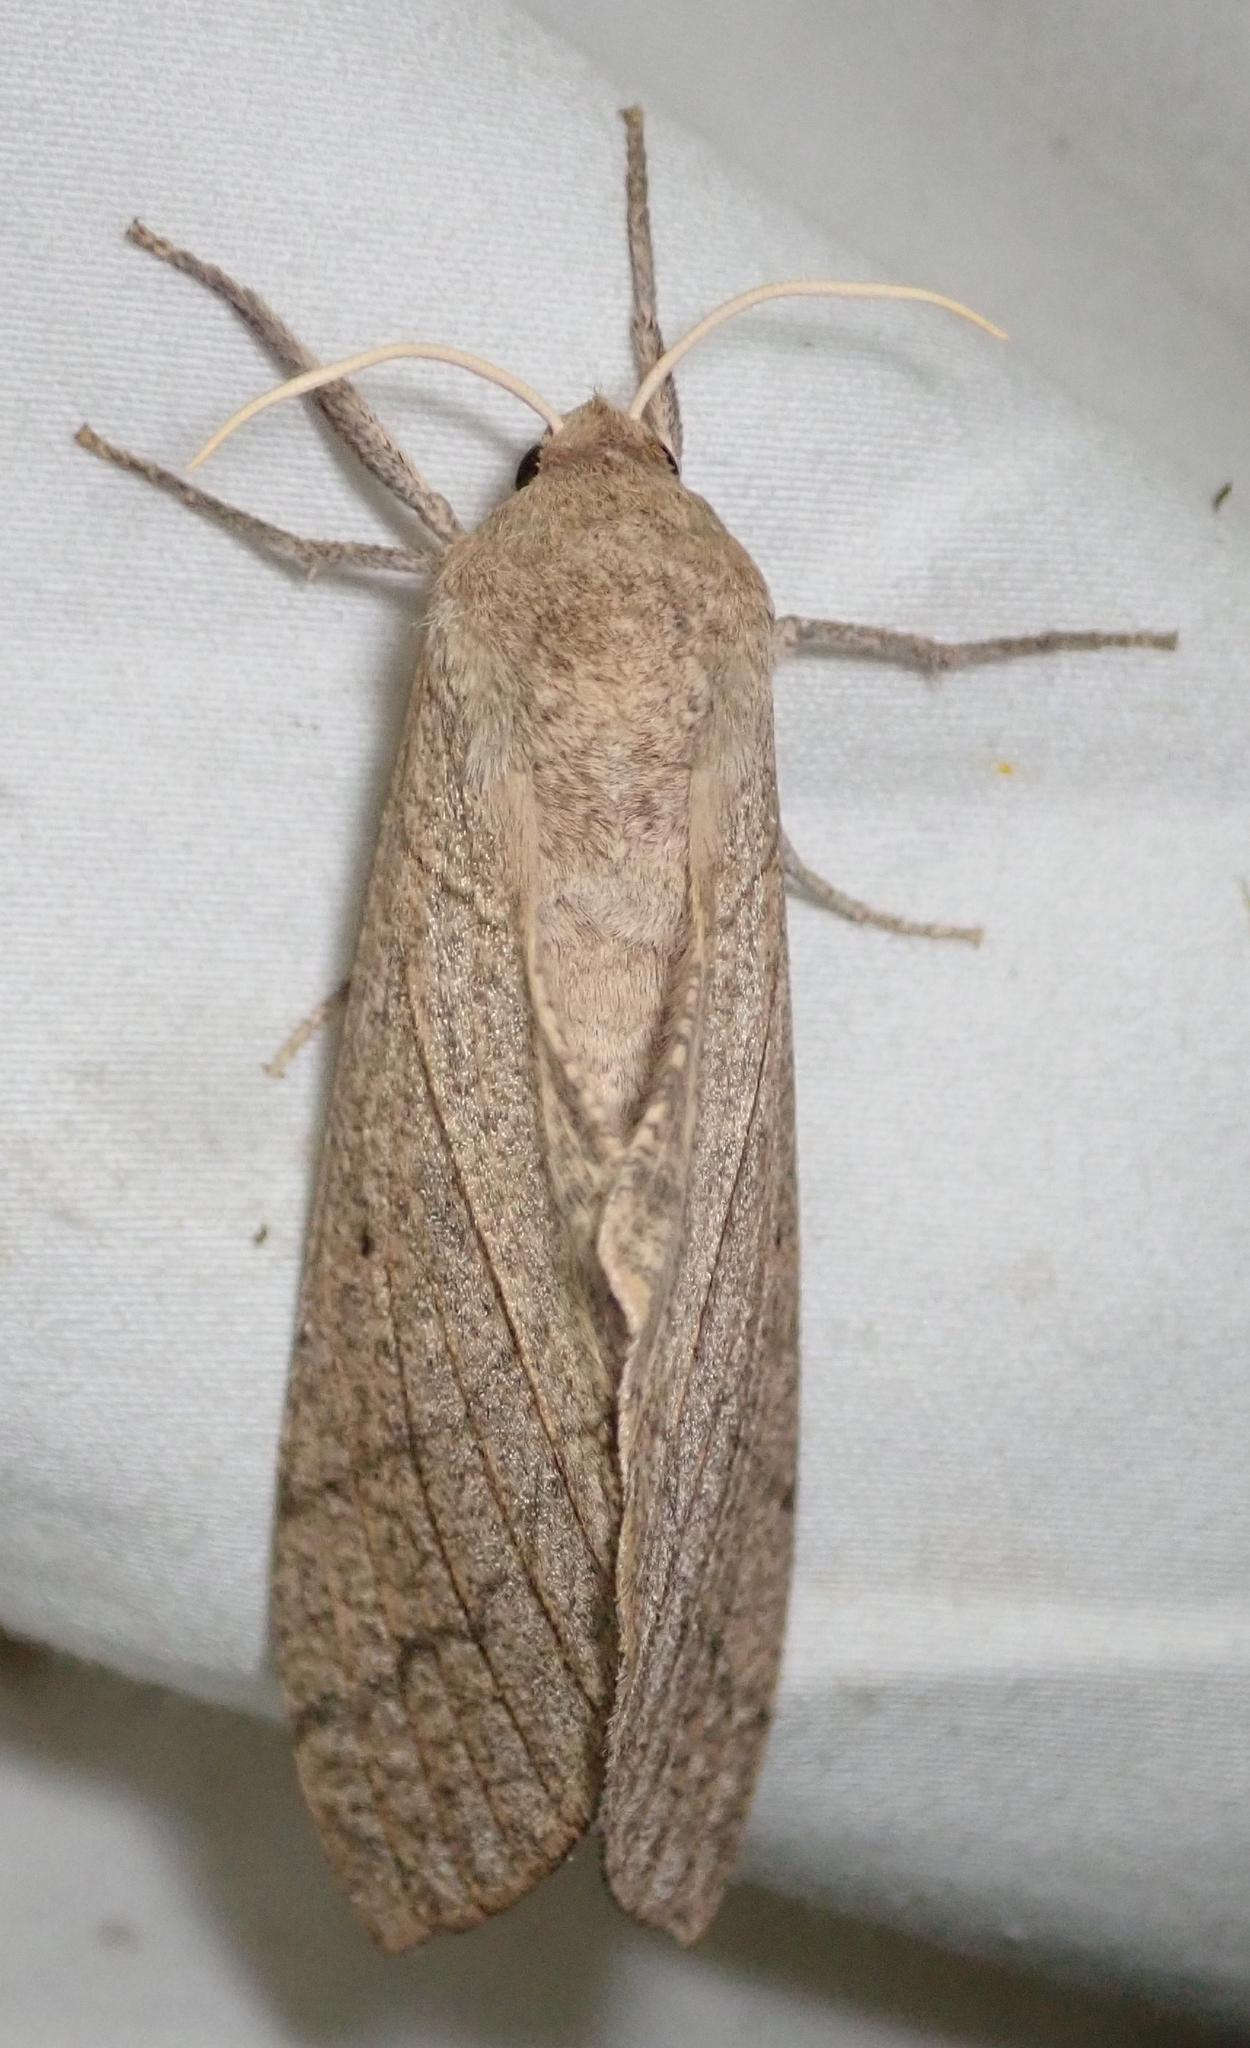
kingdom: Animalia
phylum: Arthropoda
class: Insecta
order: Lepidoptera
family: Sphingidae
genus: Neoclanis
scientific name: Neoclanis basalis
